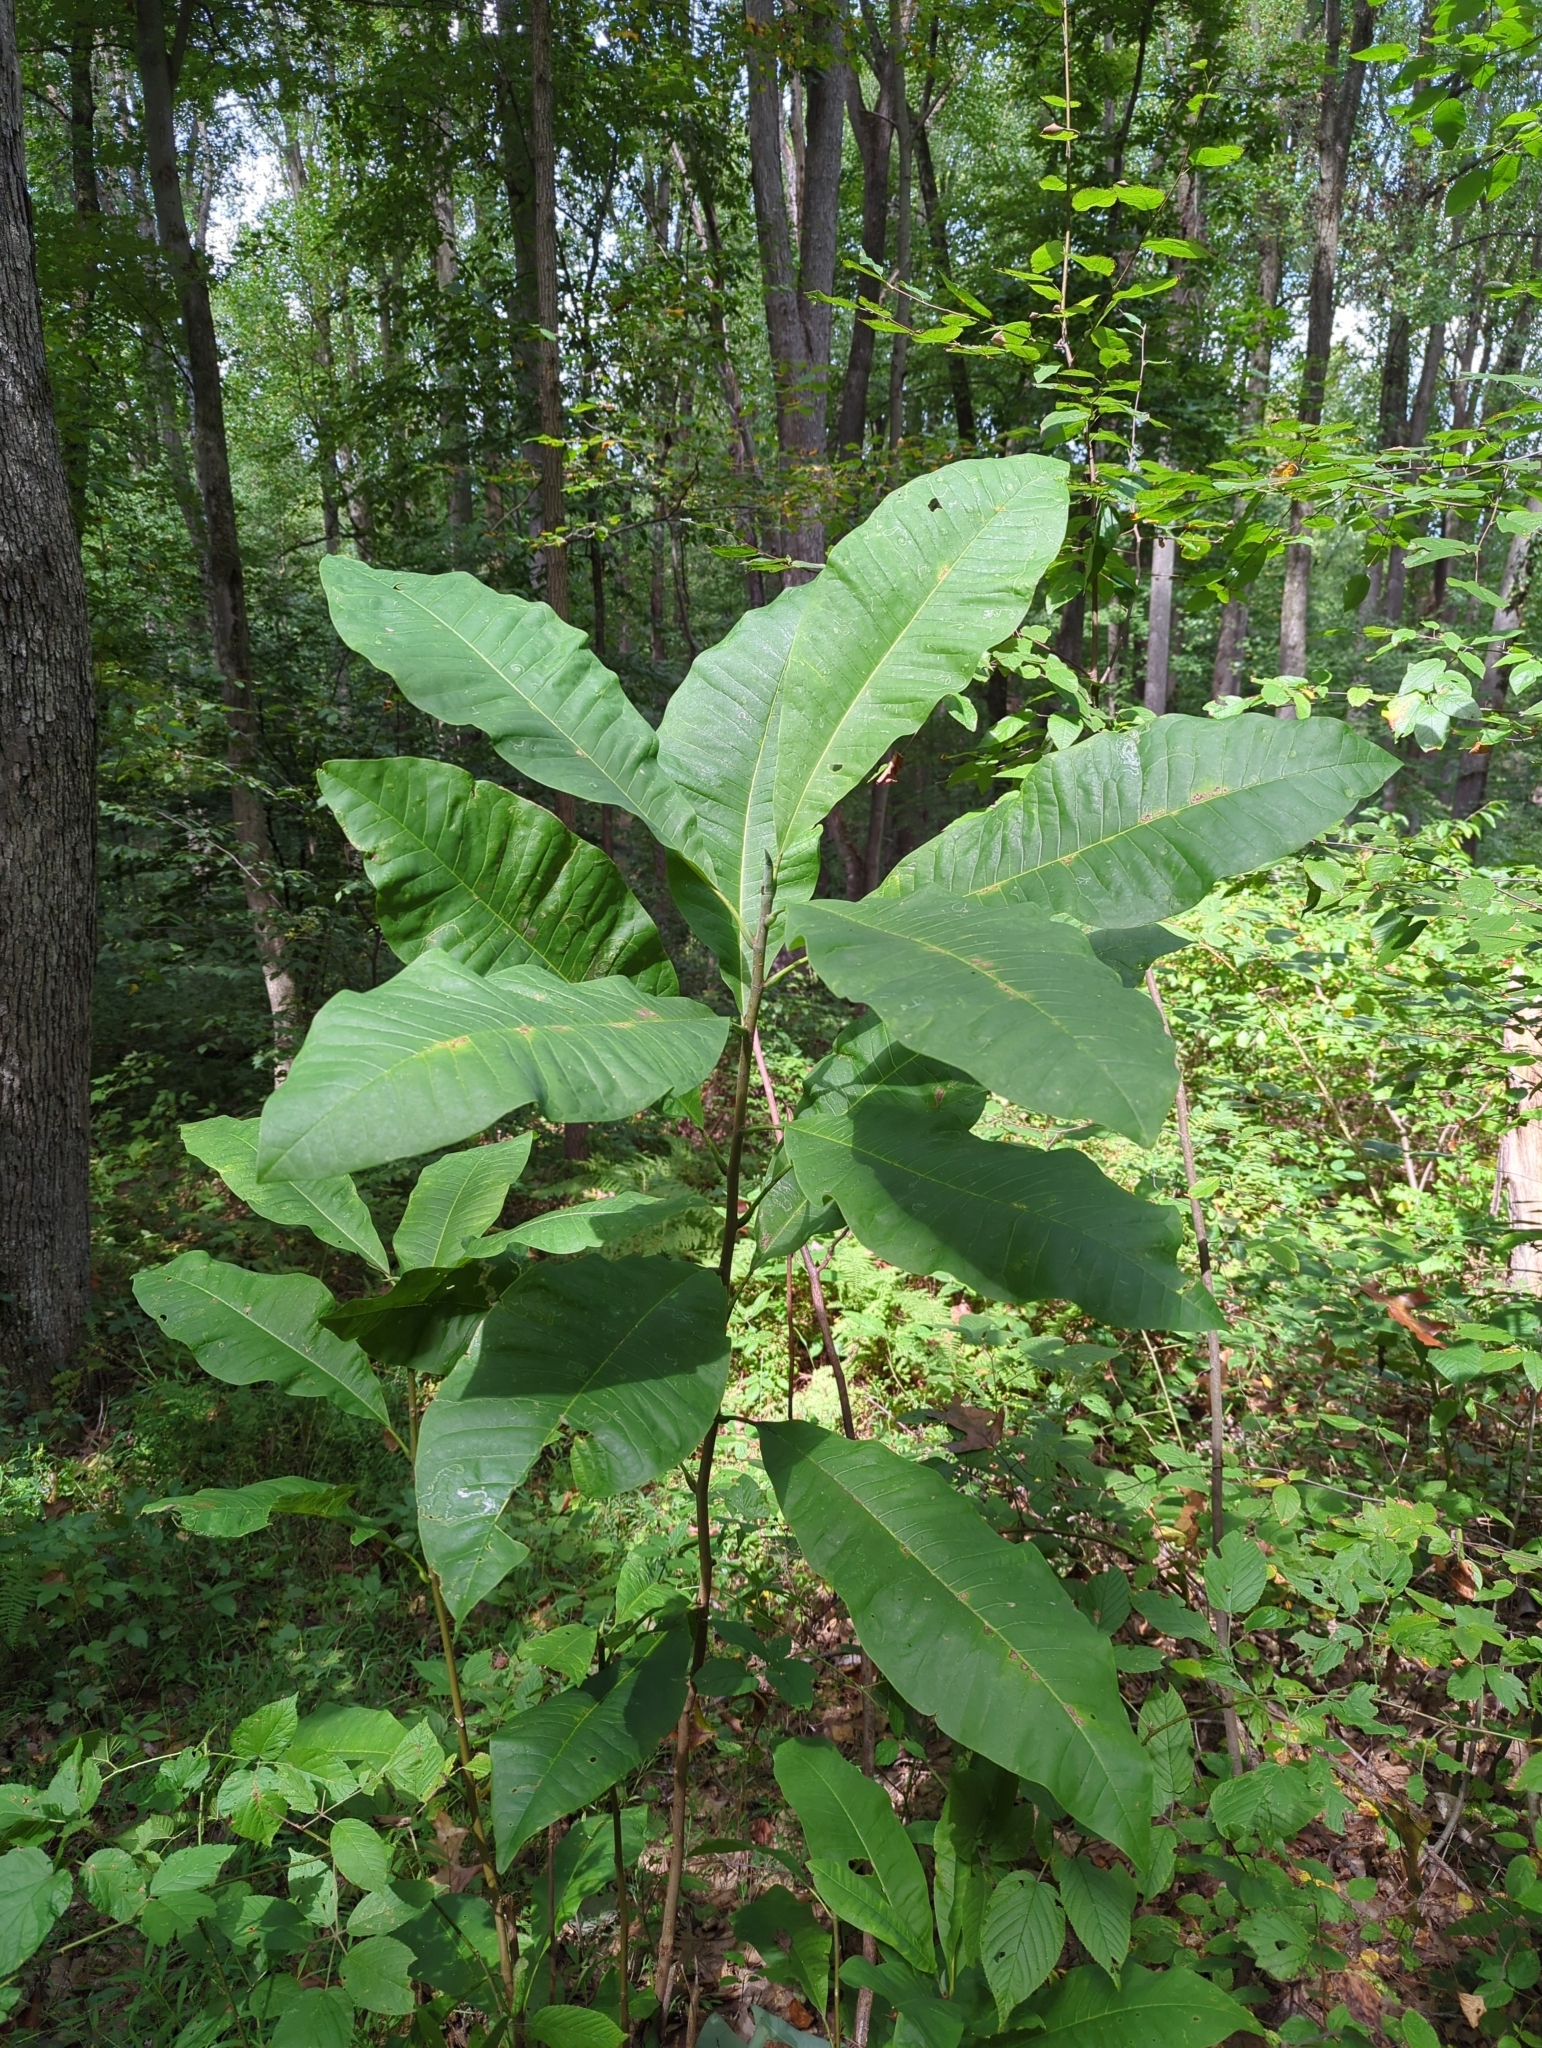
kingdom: Plantae
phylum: Tracheophyta
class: Magnoliopsida
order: Magnoliales
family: Magnoliaceae
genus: Magnolia
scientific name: Magnolia tripetala
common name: Umbrella magnolia
